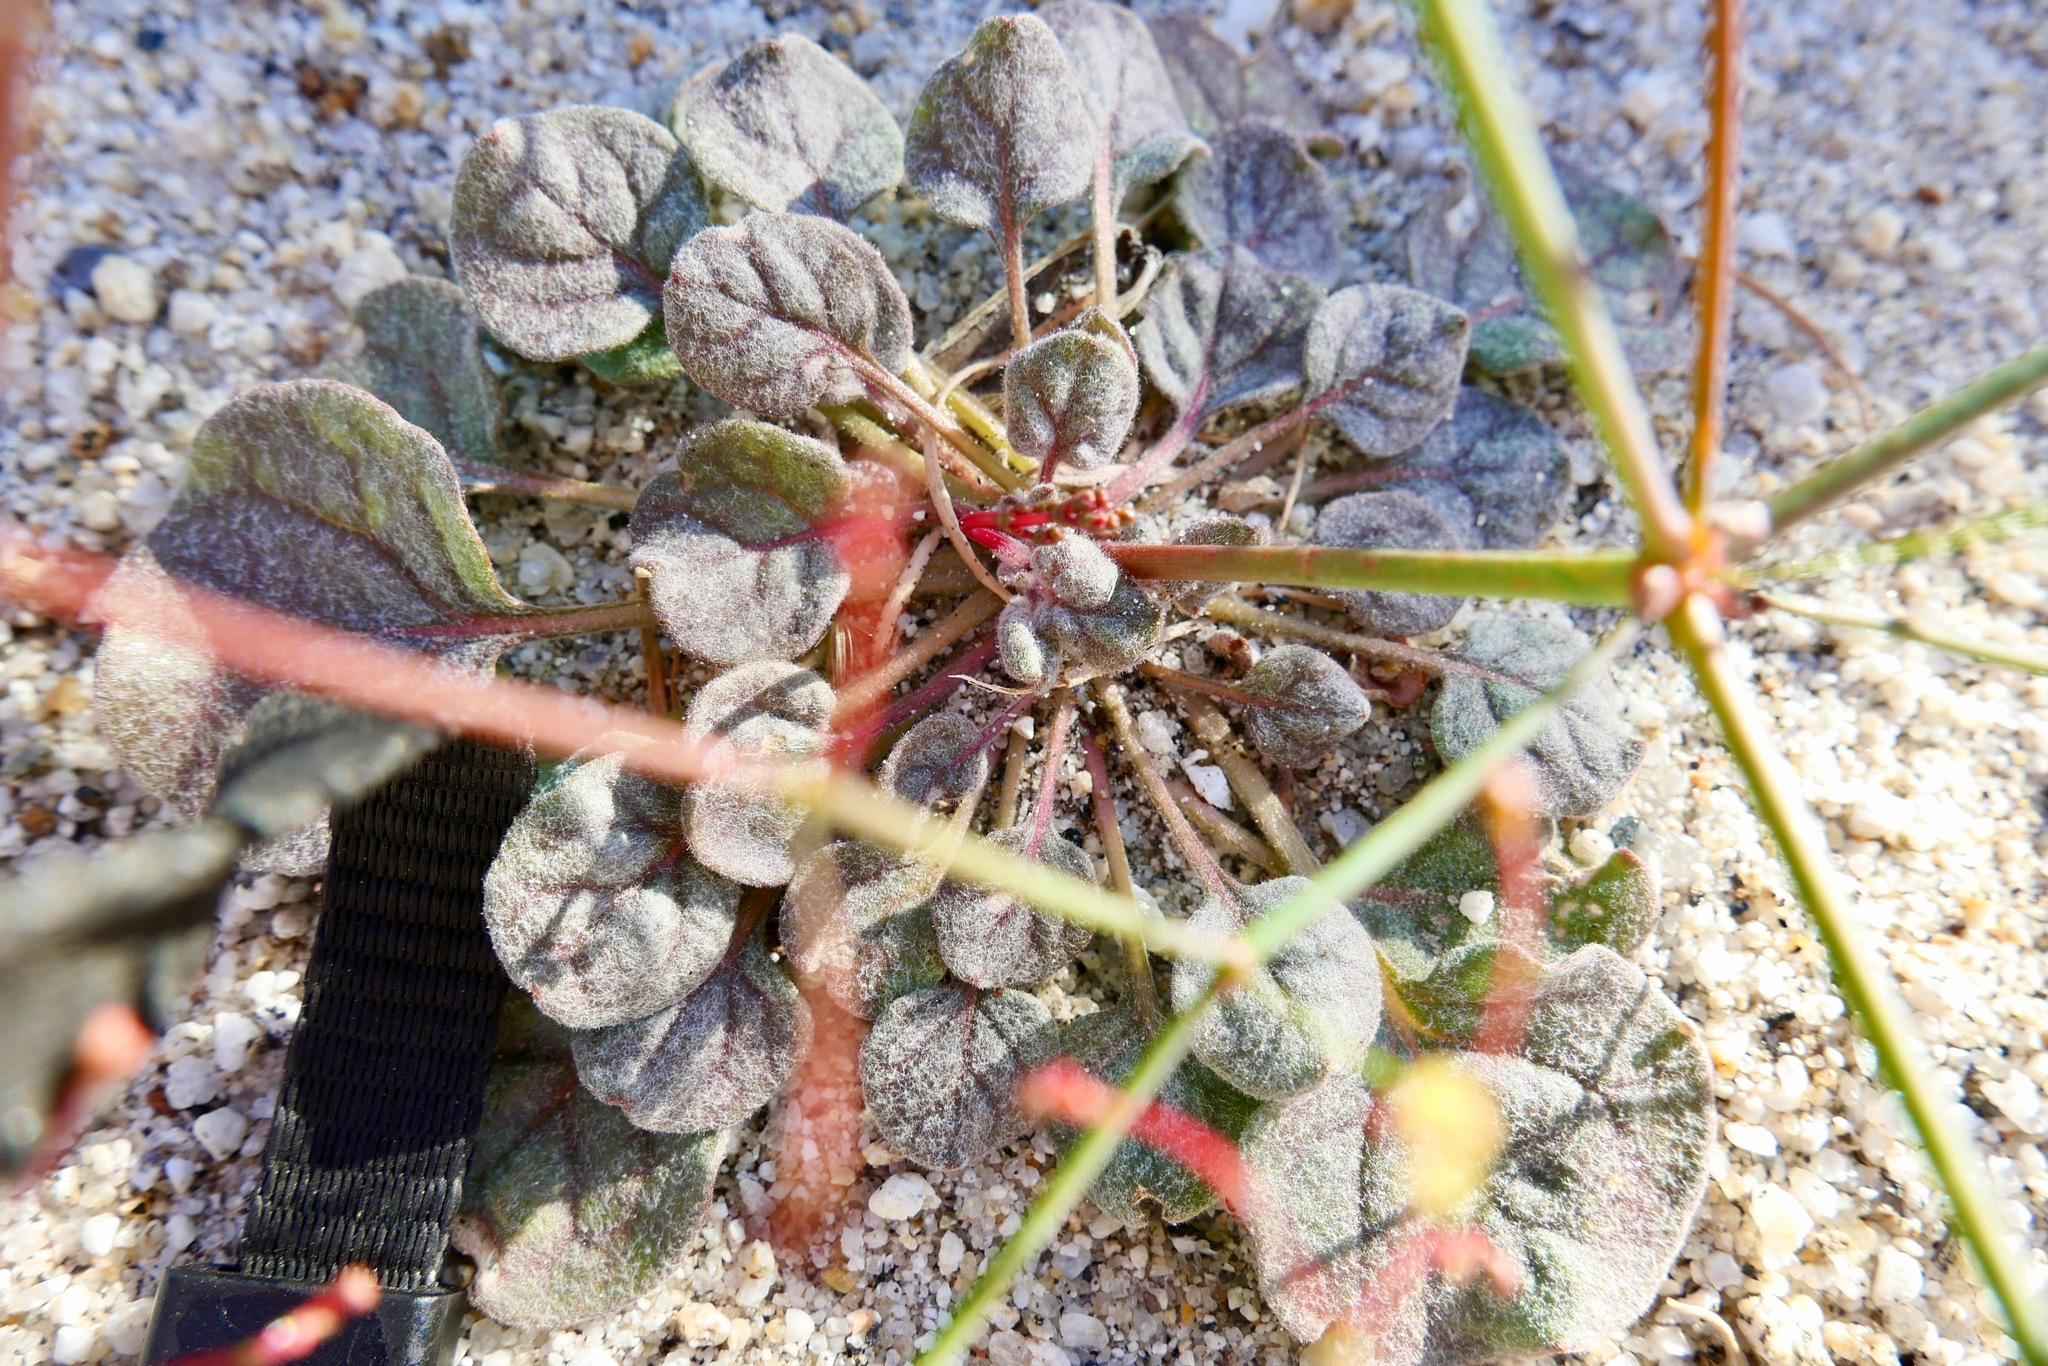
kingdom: Plantae
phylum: Tracheophyta
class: Magnoliopsida
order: Caryophyllales
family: Polygonaceae
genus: Eriogonum
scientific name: Eriogonum thomasii
